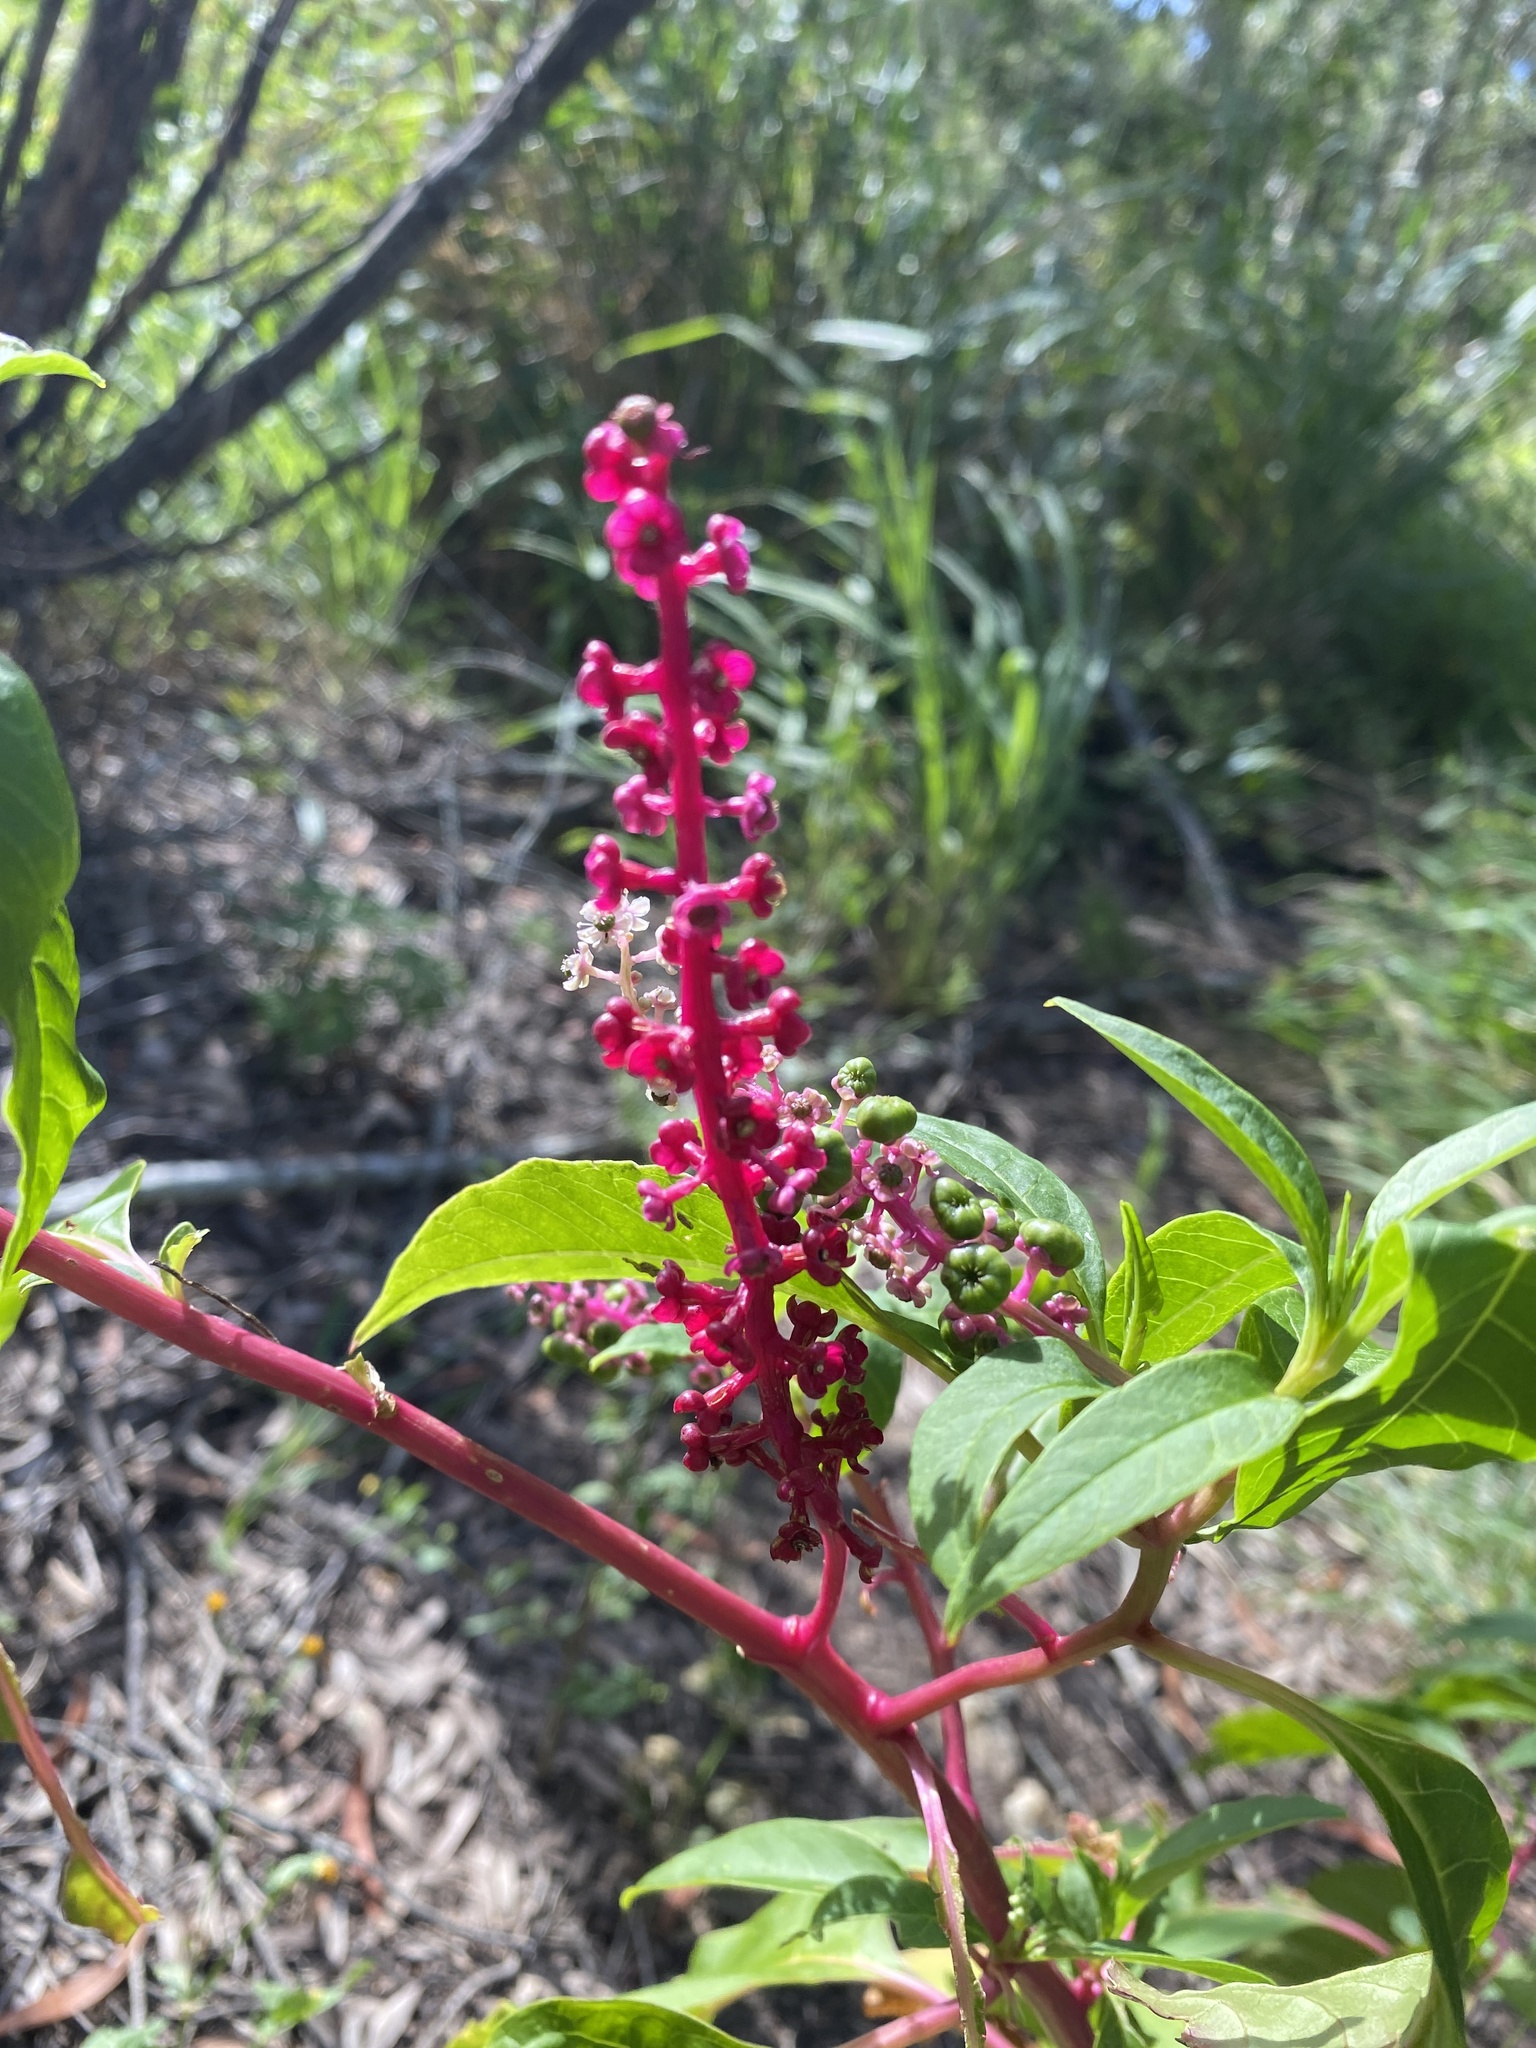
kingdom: Plantae
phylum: Tracheophyta
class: Magnoliopsida
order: Caryophyllales
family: Phytolaccaceae
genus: Phytolacca
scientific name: Phytolacca americana
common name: American pokeweed
